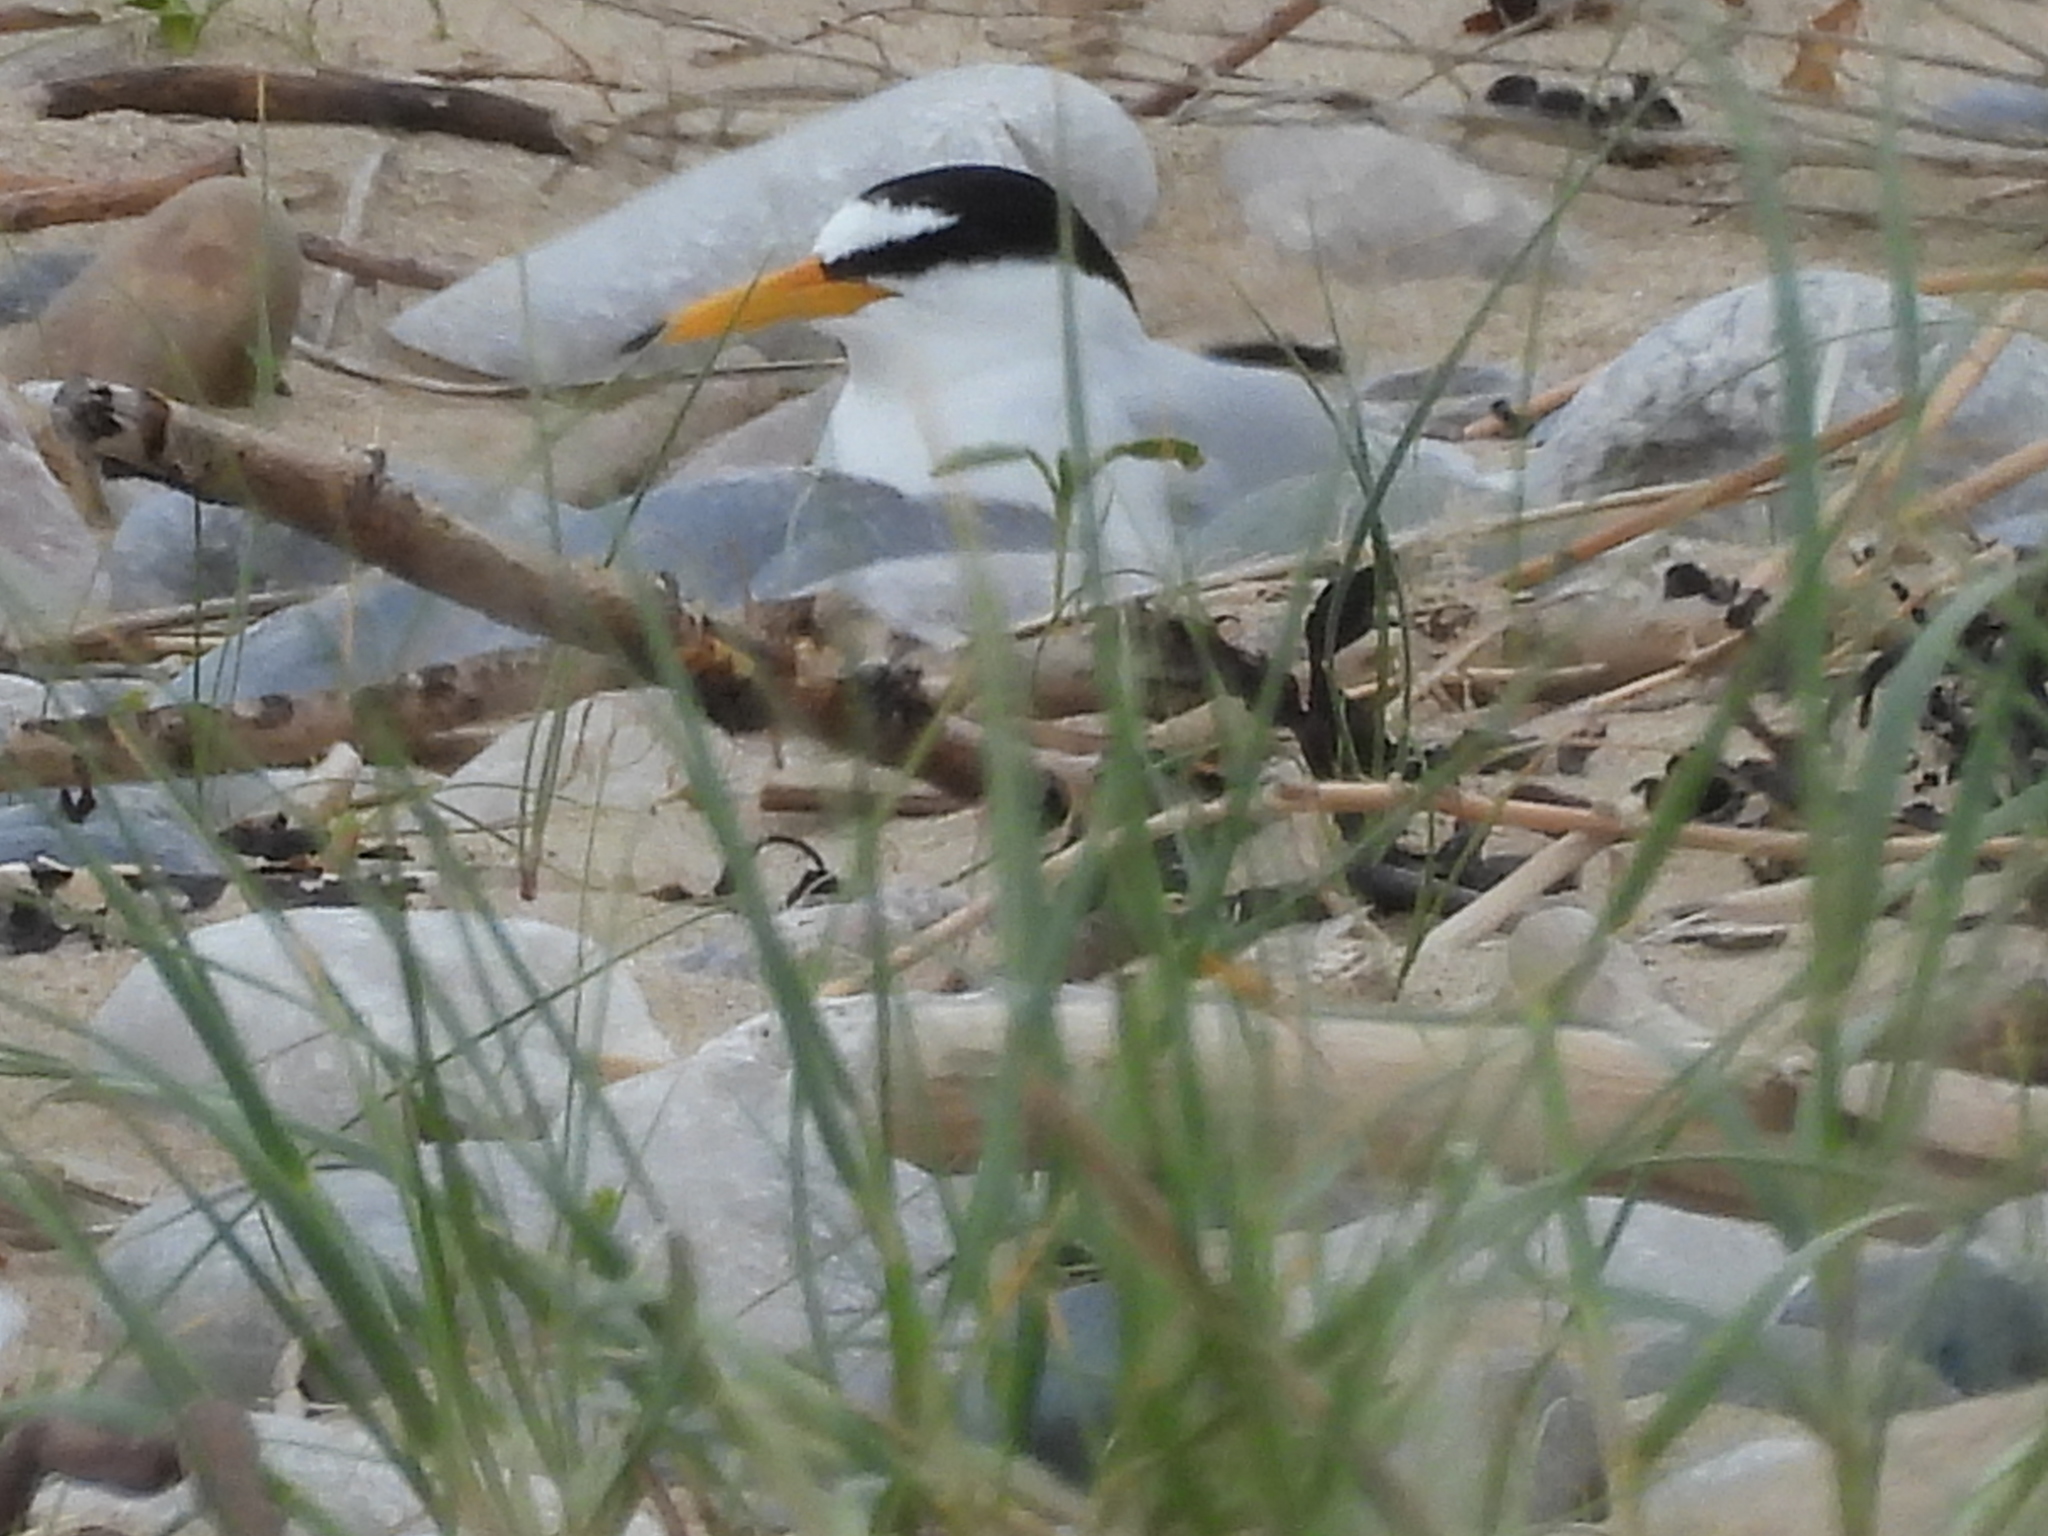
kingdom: Animalia
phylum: Chordata
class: Aves
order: Charadriiformes
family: Laridae
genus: Sternula
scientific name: Sternula albifrons
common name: Little tern
